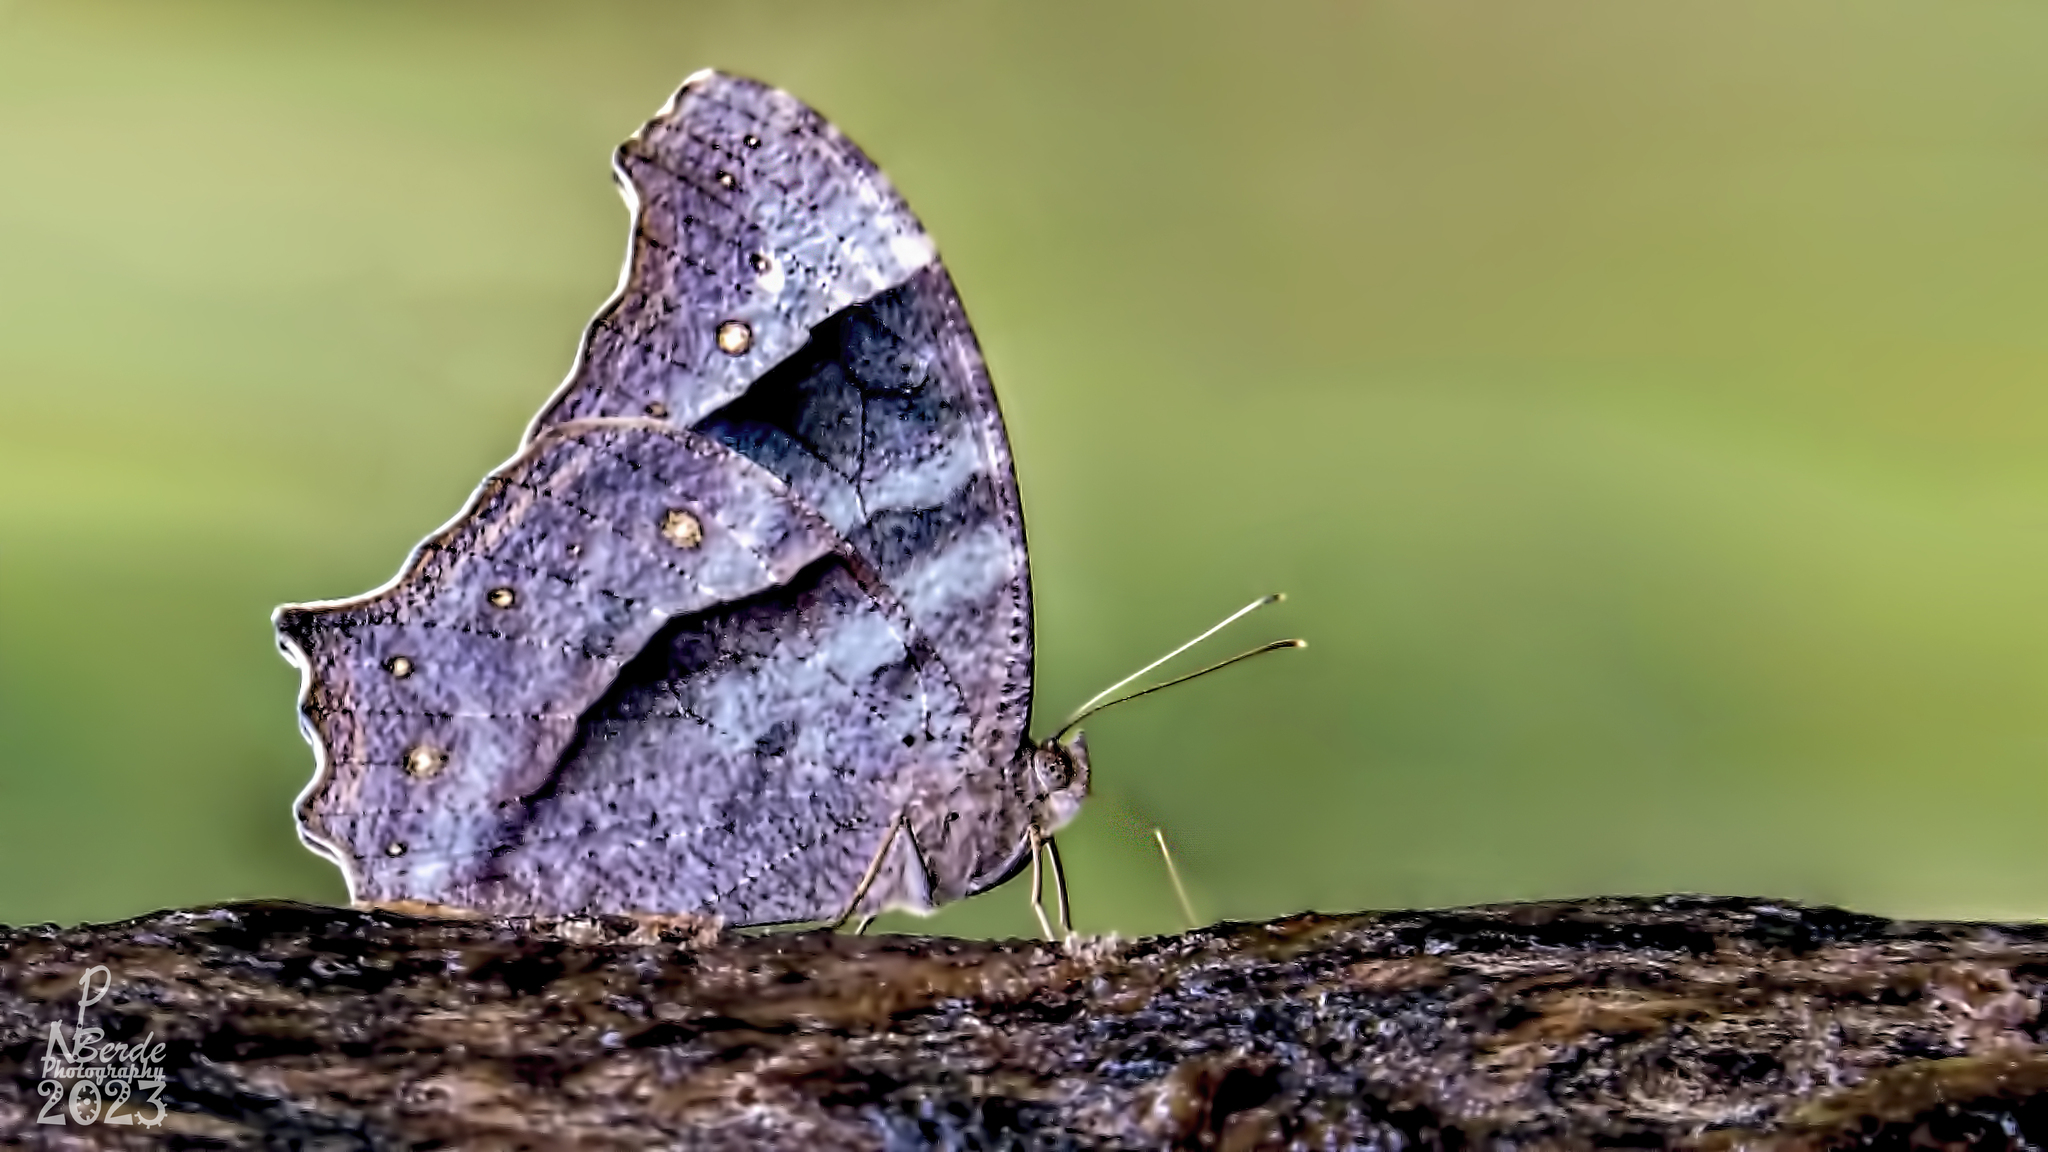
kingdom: Animalia
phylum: Arthropoda
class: Insecta
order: Lepidoptera
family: Nymphalidae
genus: Melanitis
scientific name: Melanitis leda
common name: Twilight brown
